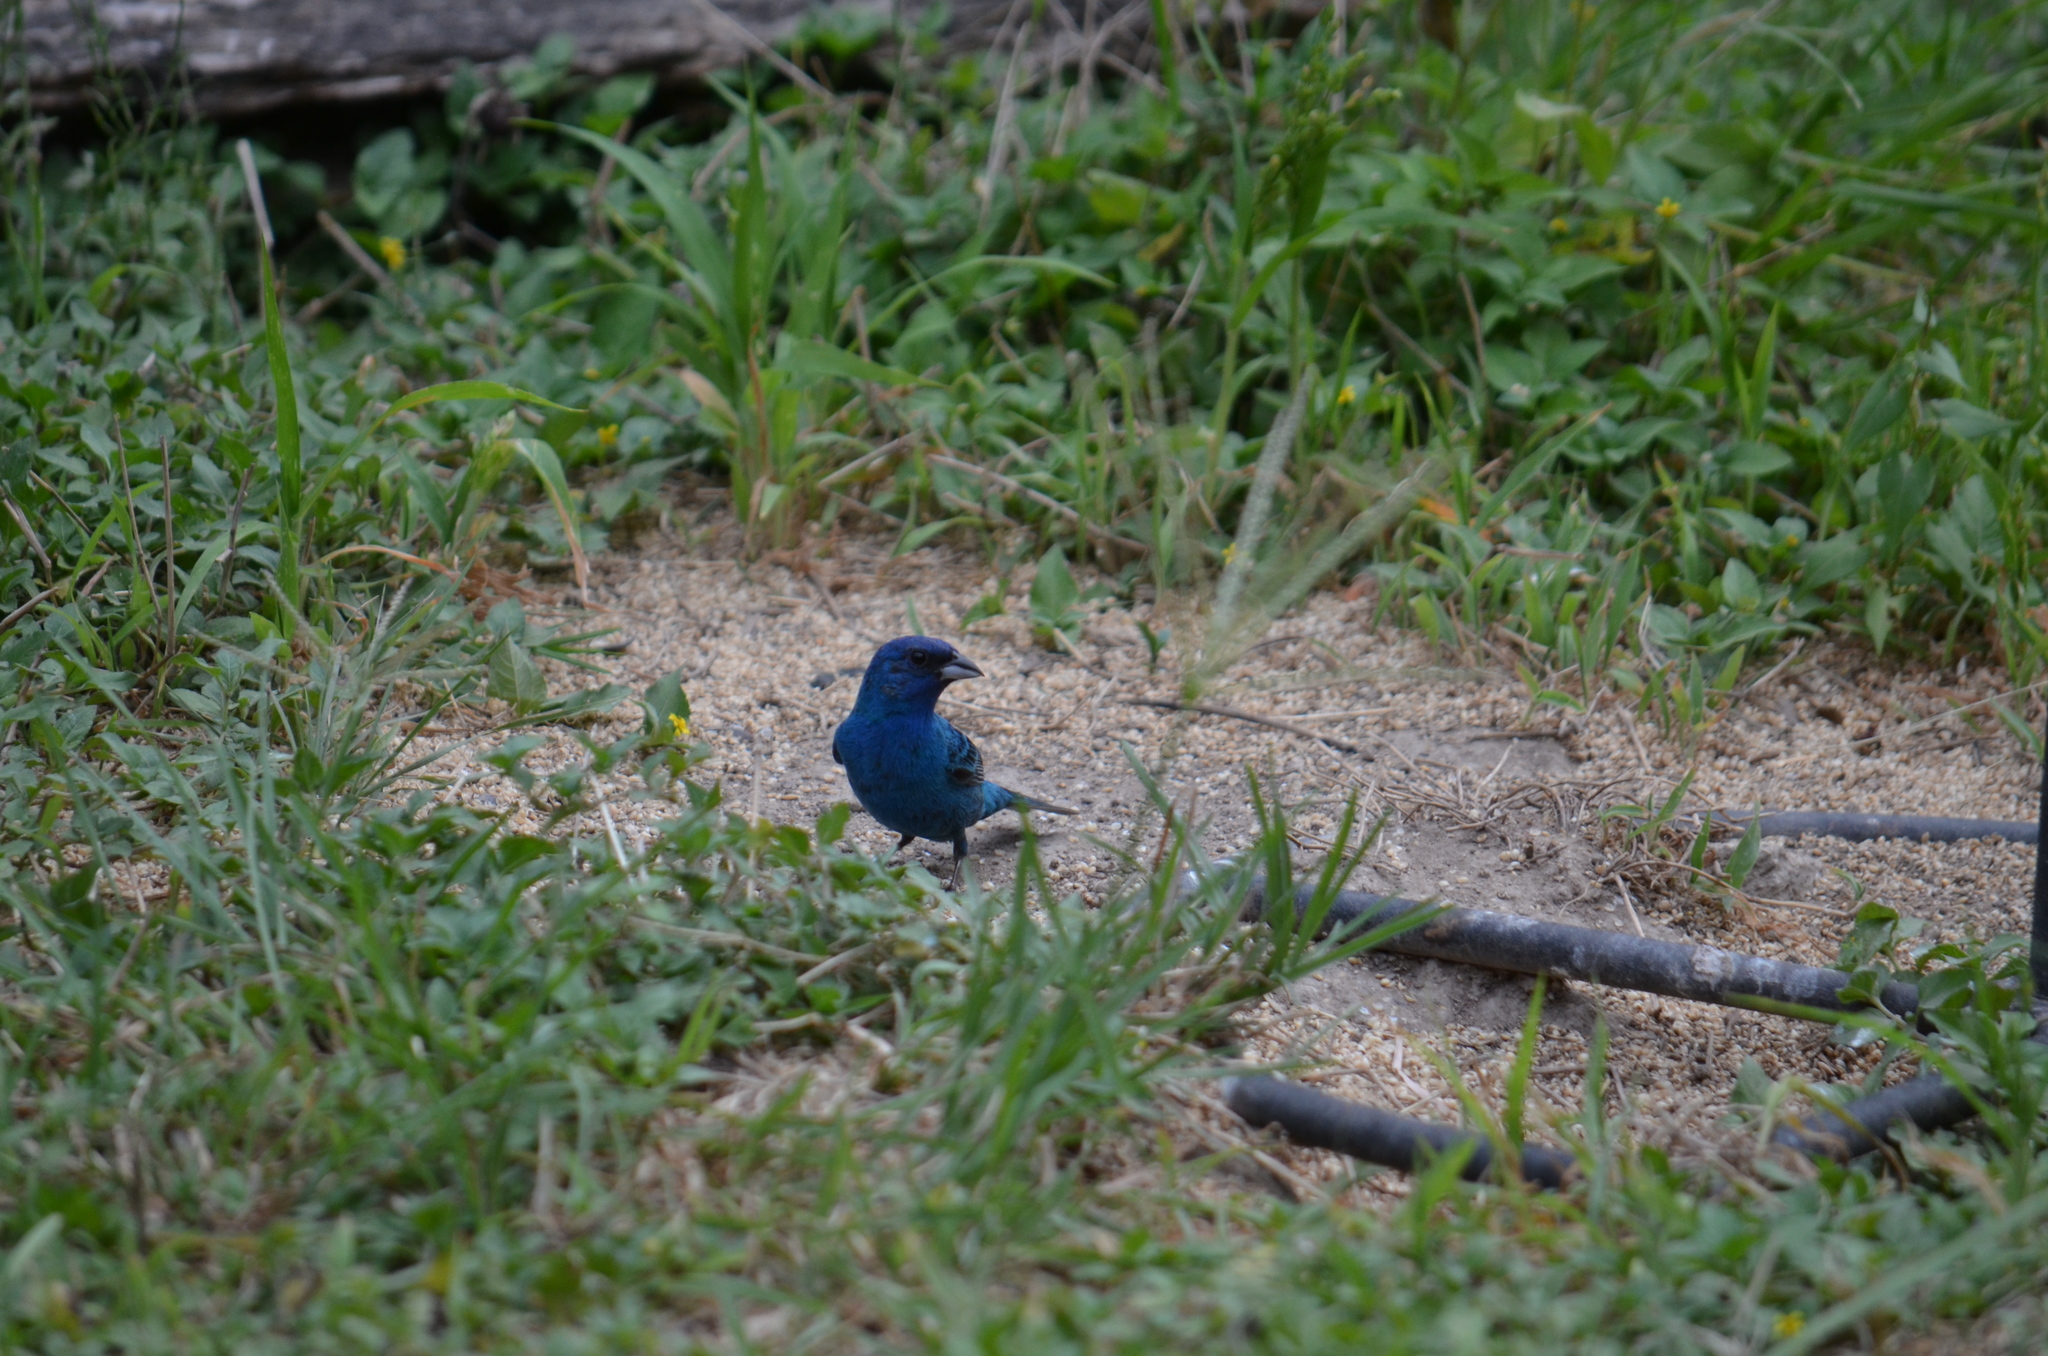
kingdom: Animalia
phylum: Chordata
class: Aves
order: Passeriformes
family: Cardinalidae
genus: Passerina
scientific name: Passerina cyanea
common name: Indigo bunting
